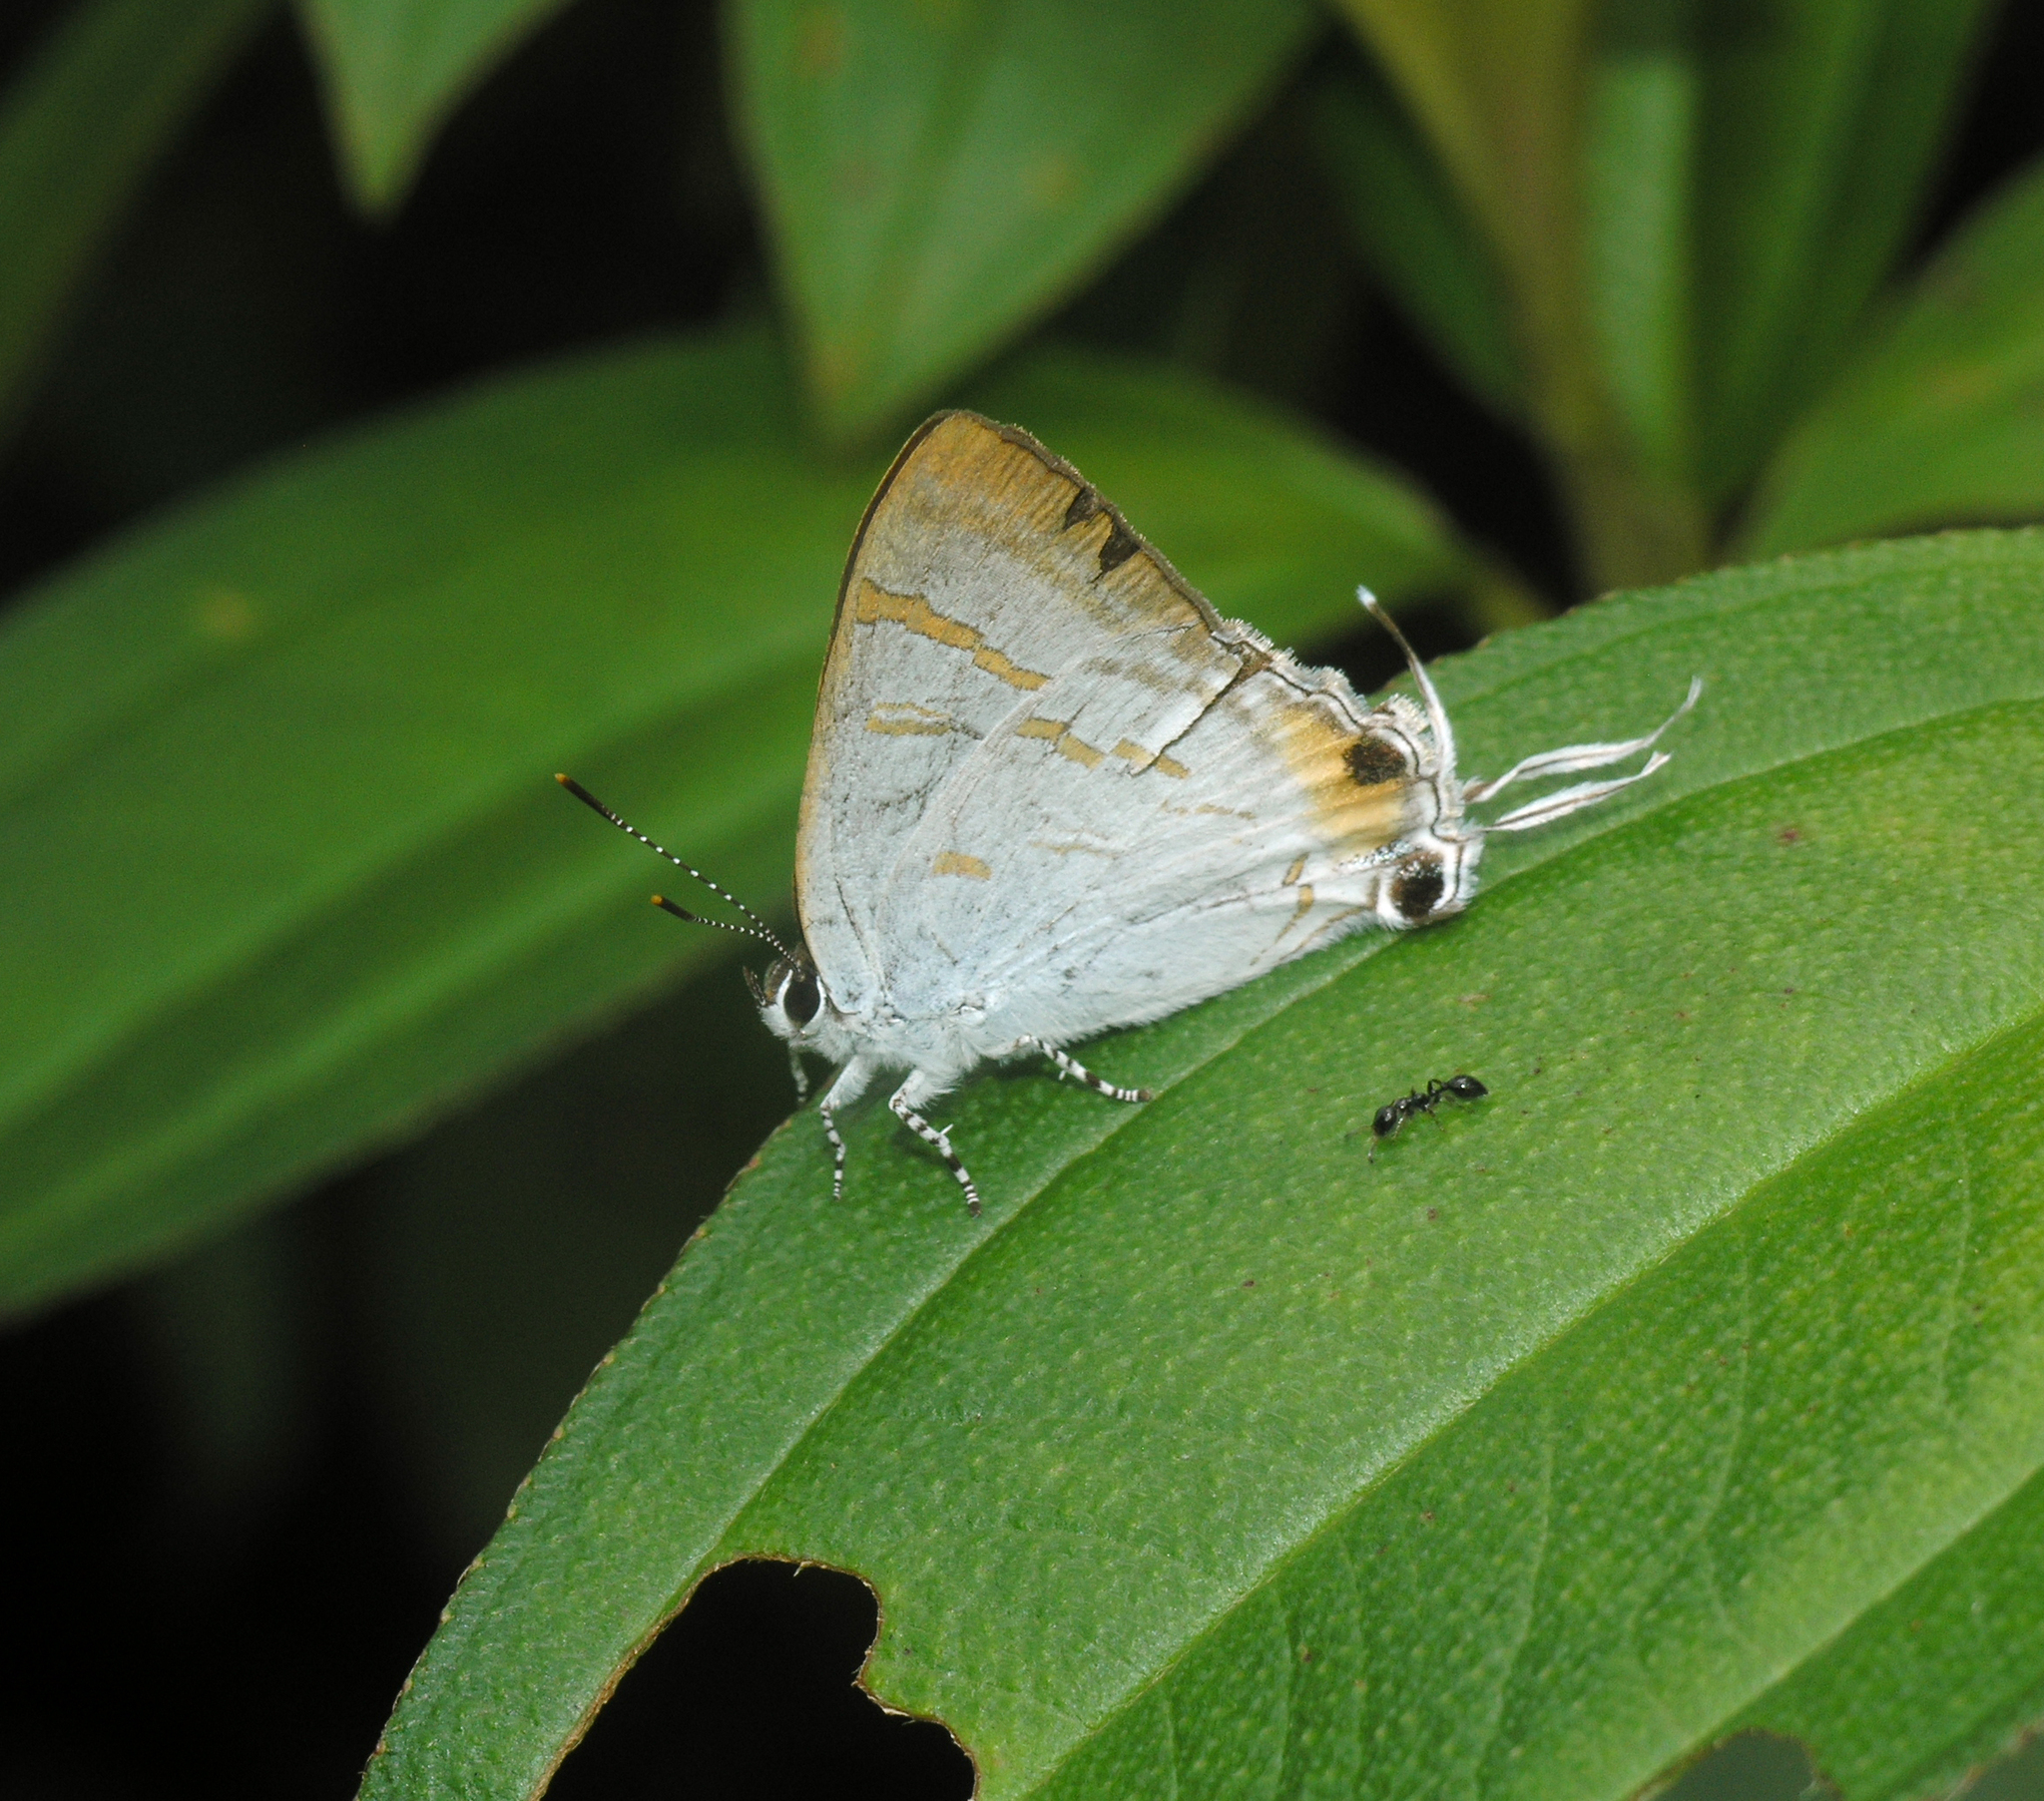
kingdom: Animalia
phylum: Arthropoda
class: Insecta
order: Lepidoptera
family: Lycaenidae
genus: Hypolycaena
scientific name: Hypolycaena thecloides
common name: Dark tit
